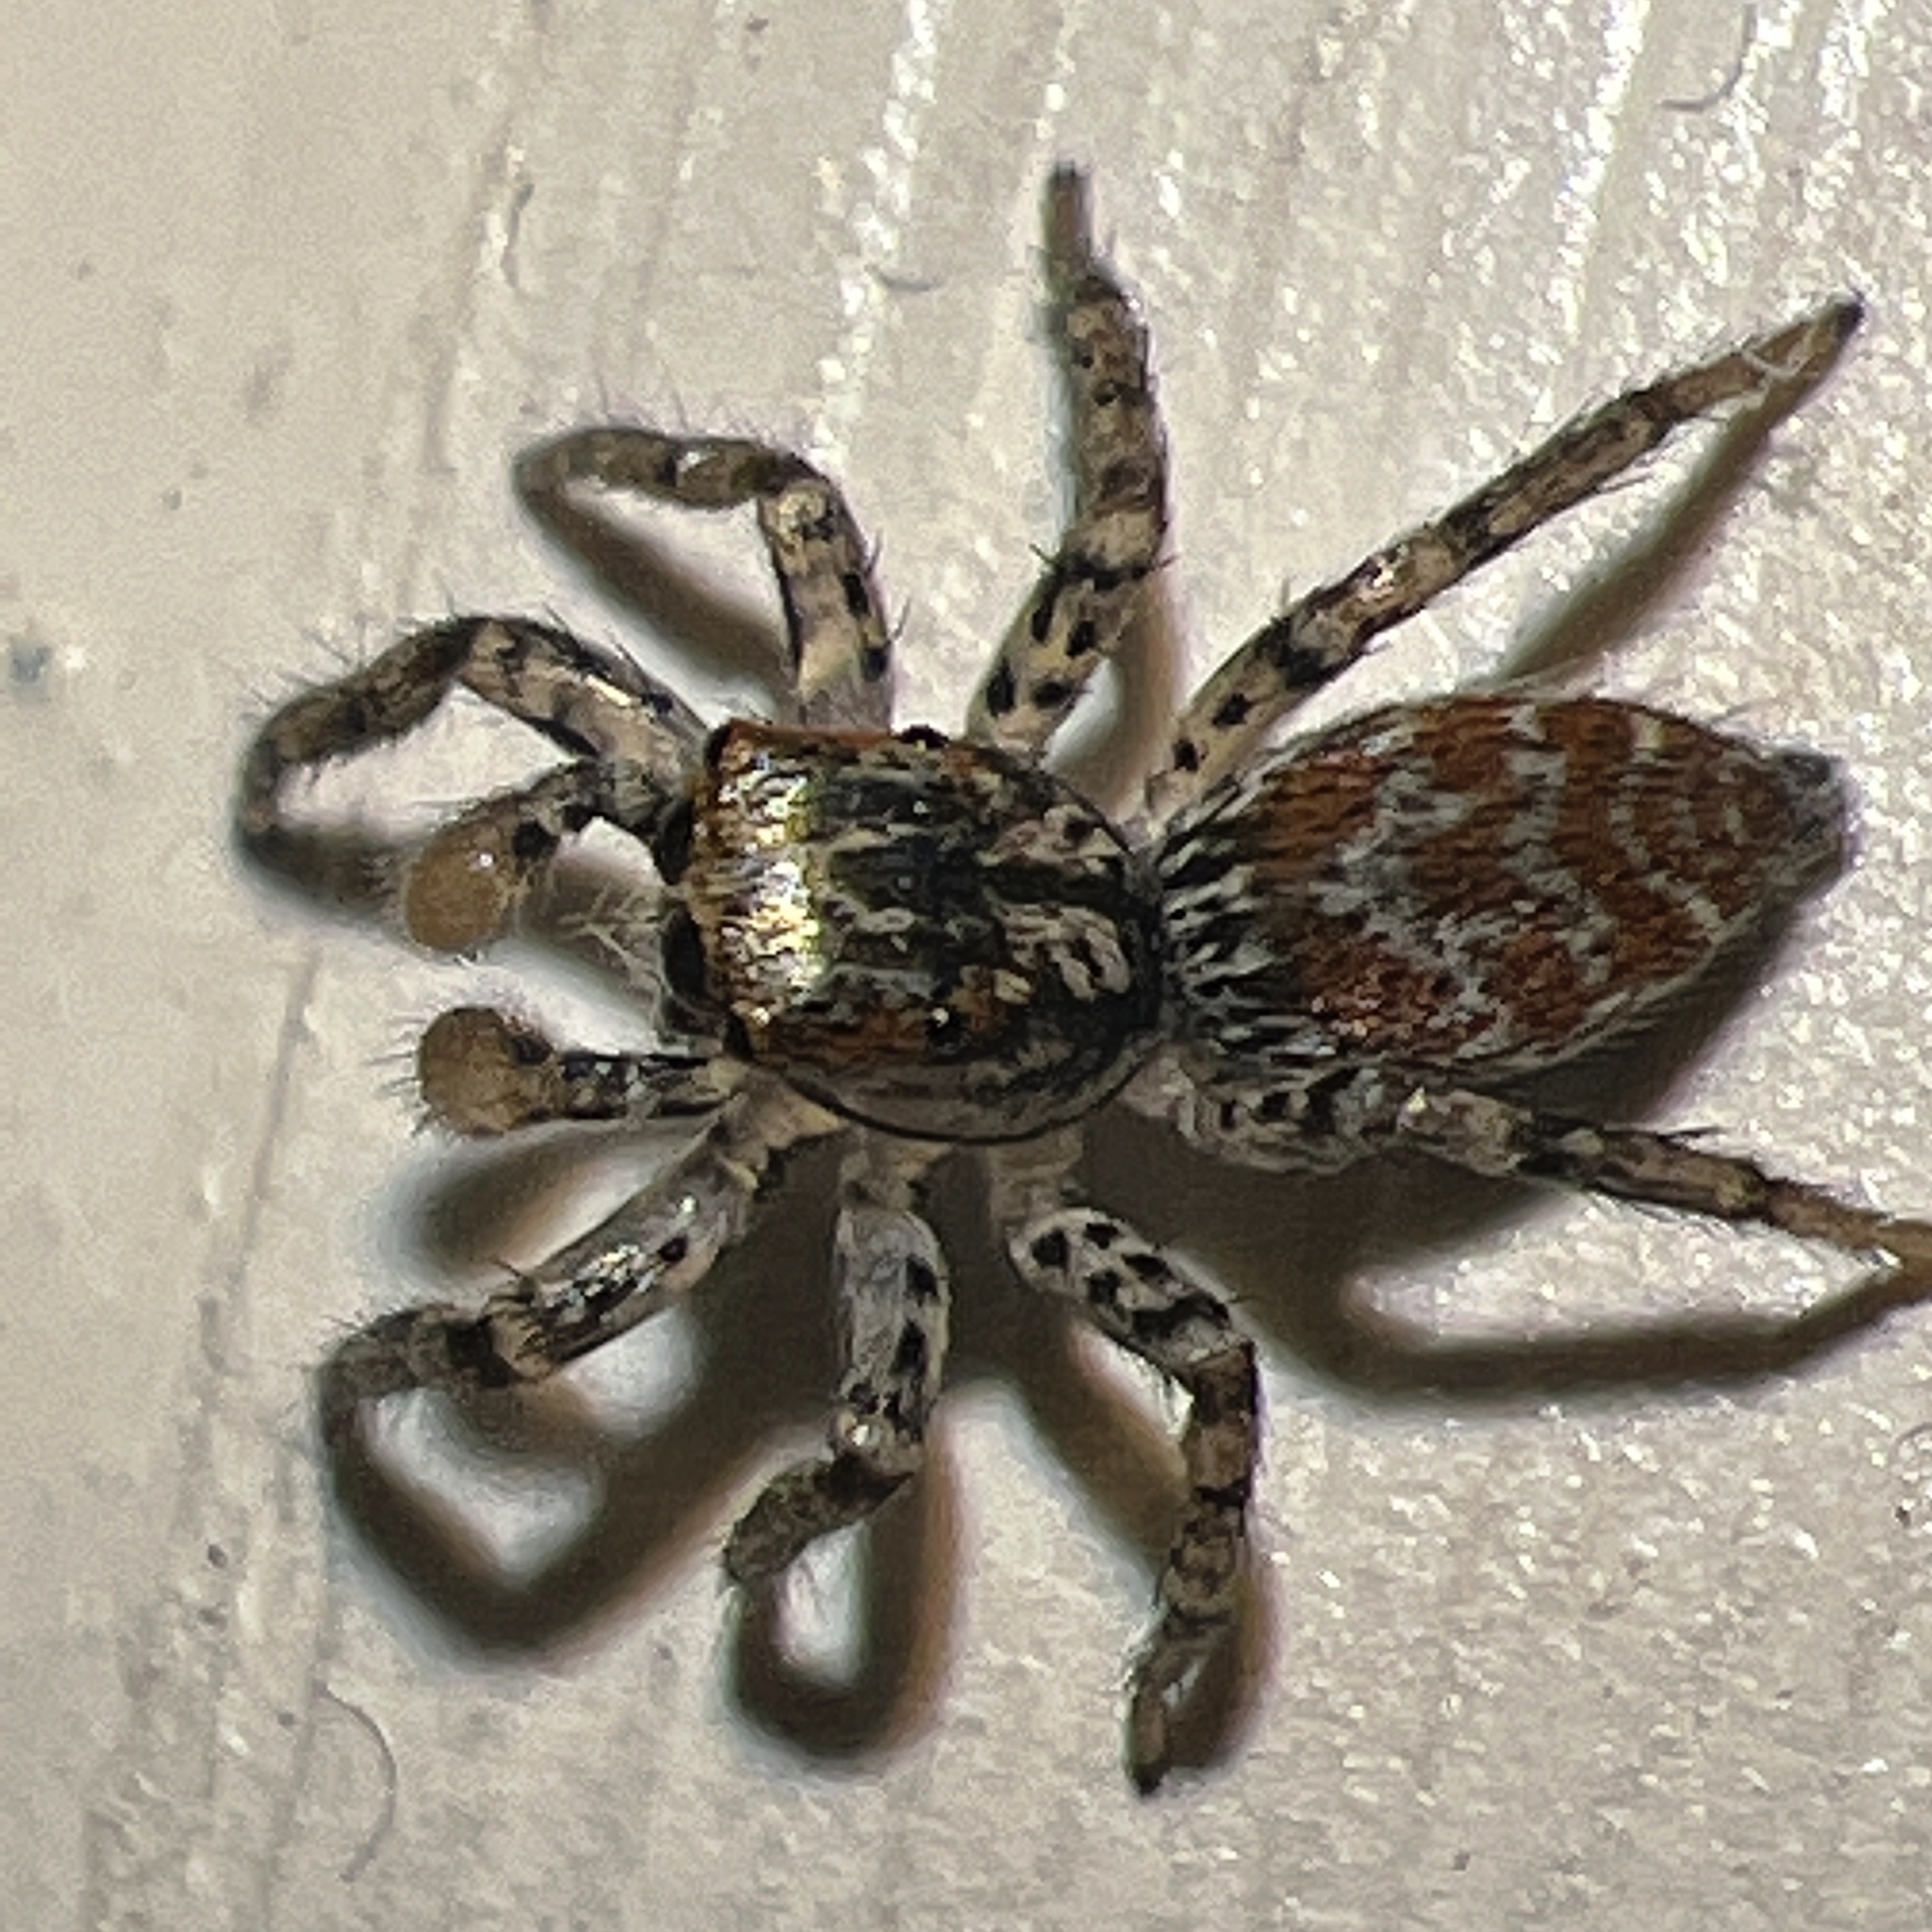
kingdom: Animalia
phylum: Arthropoda
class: Arachnida
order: Araneae
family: Salticidae
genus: Maevia
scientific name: Maevia inclemens
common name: Dimorphic jumper
